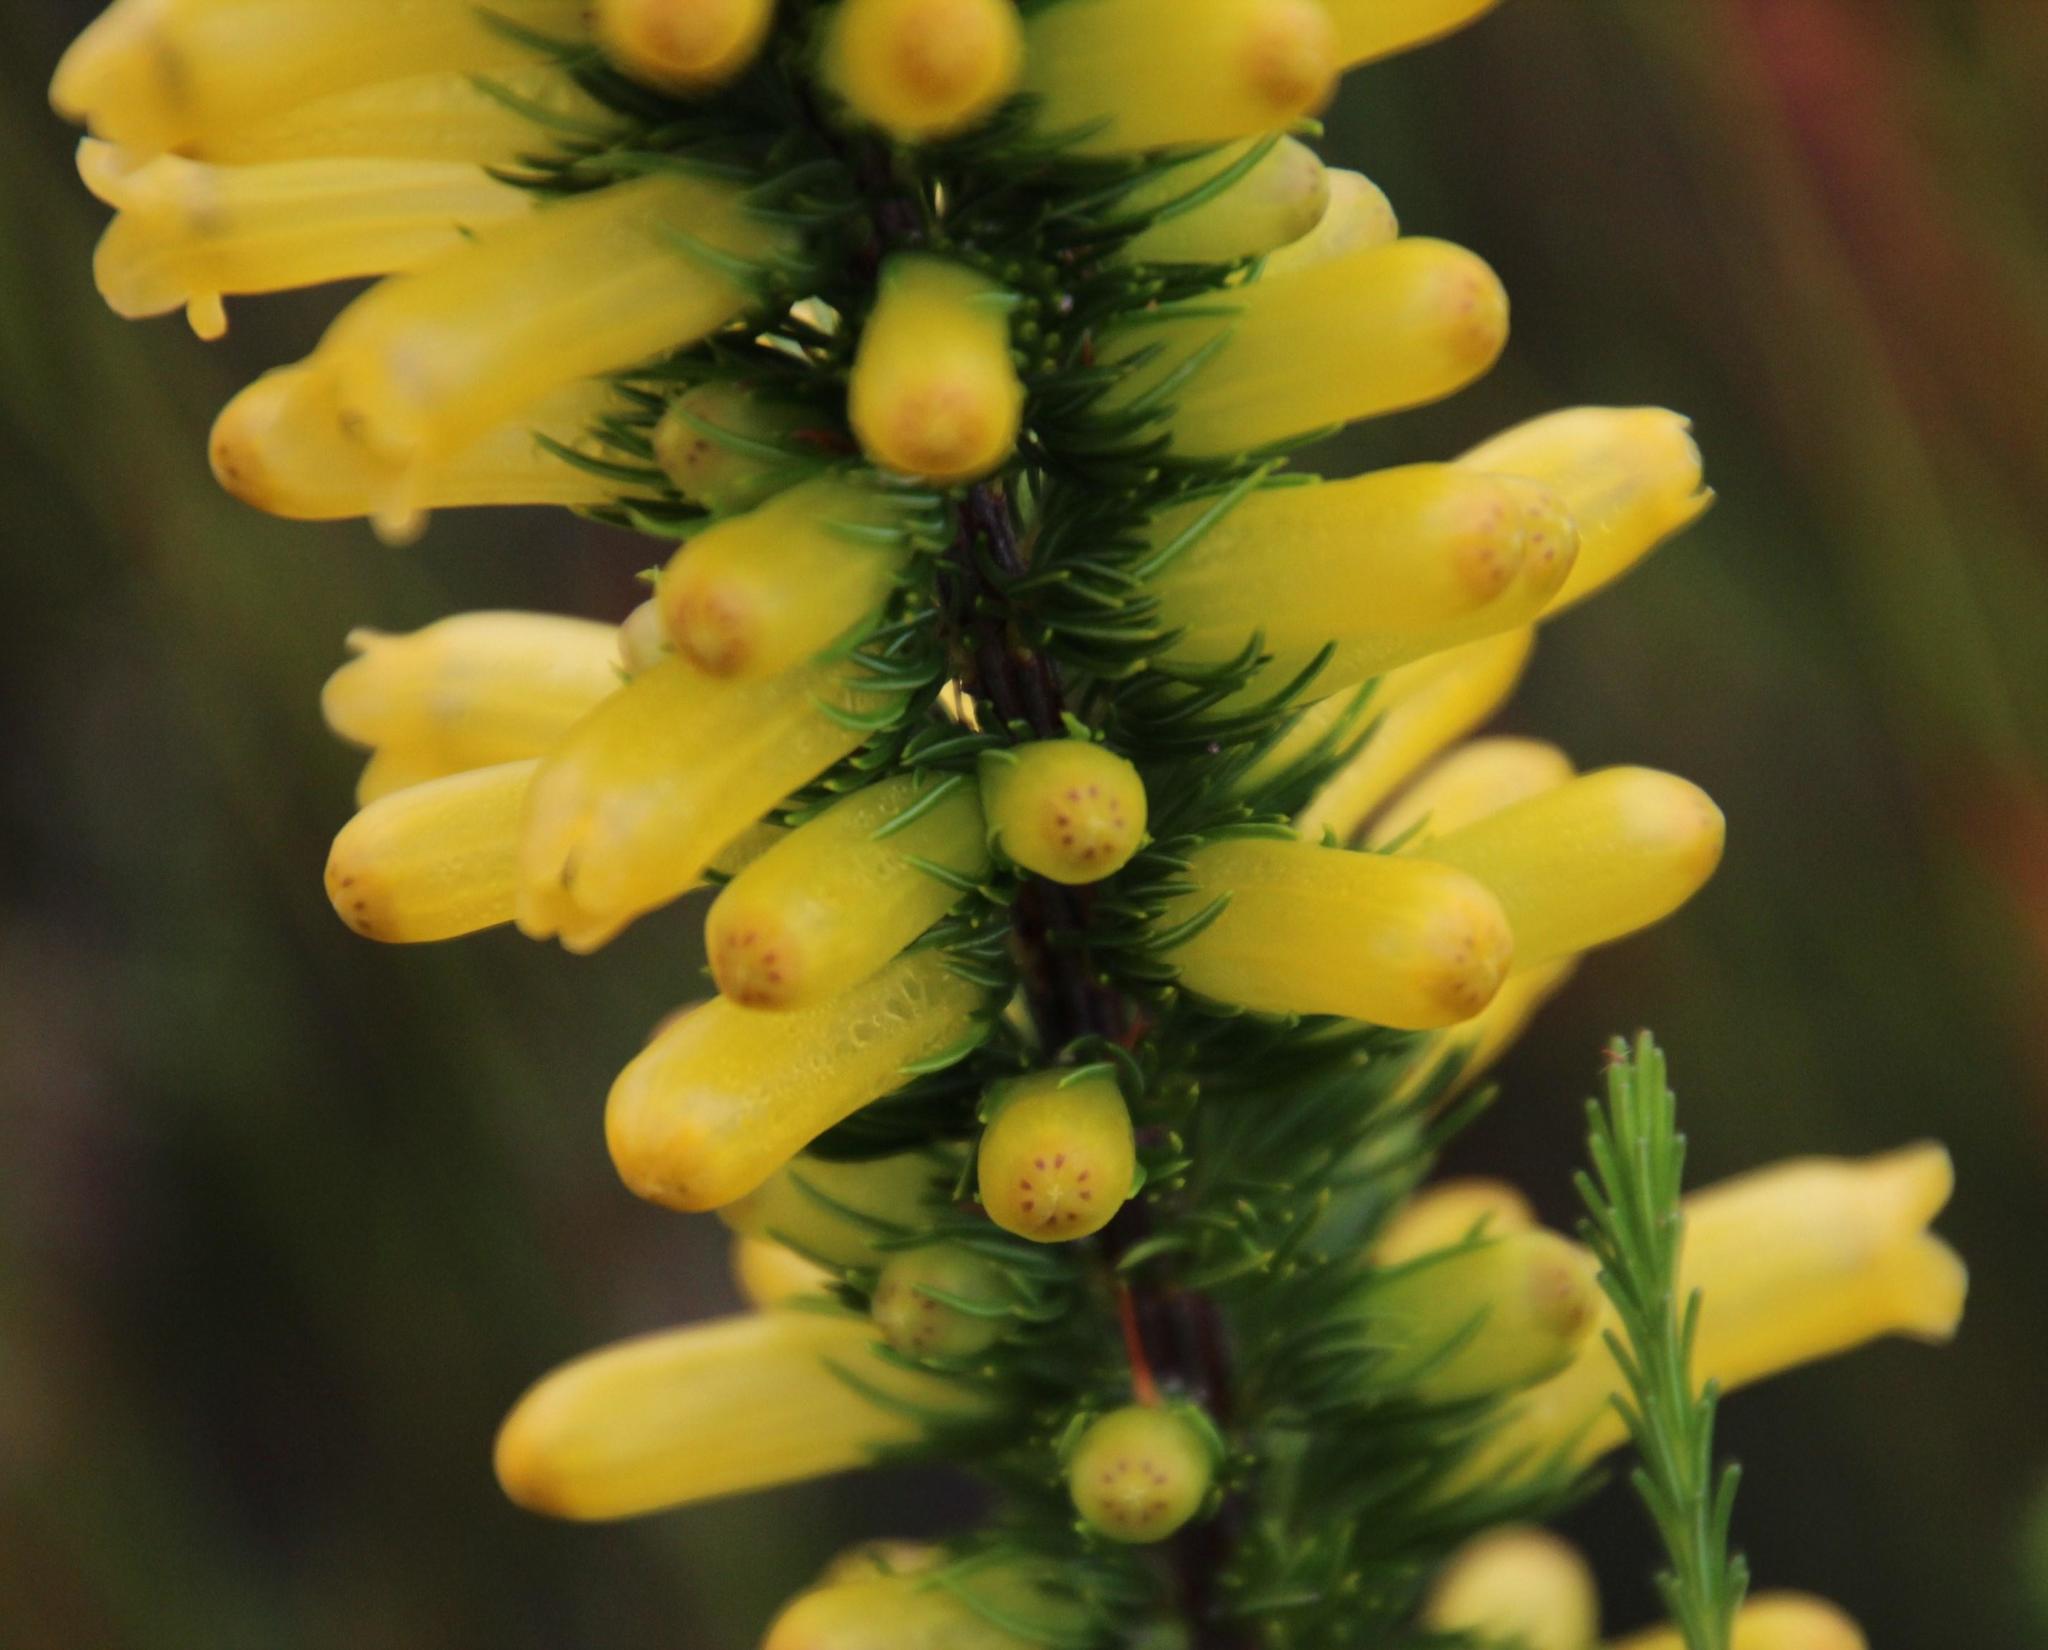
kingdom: Plantae
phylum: Tracheophyta
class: Magnoliopsida
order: Ericales
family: Ericaceae
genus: Erica
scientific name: Erica patersonia
